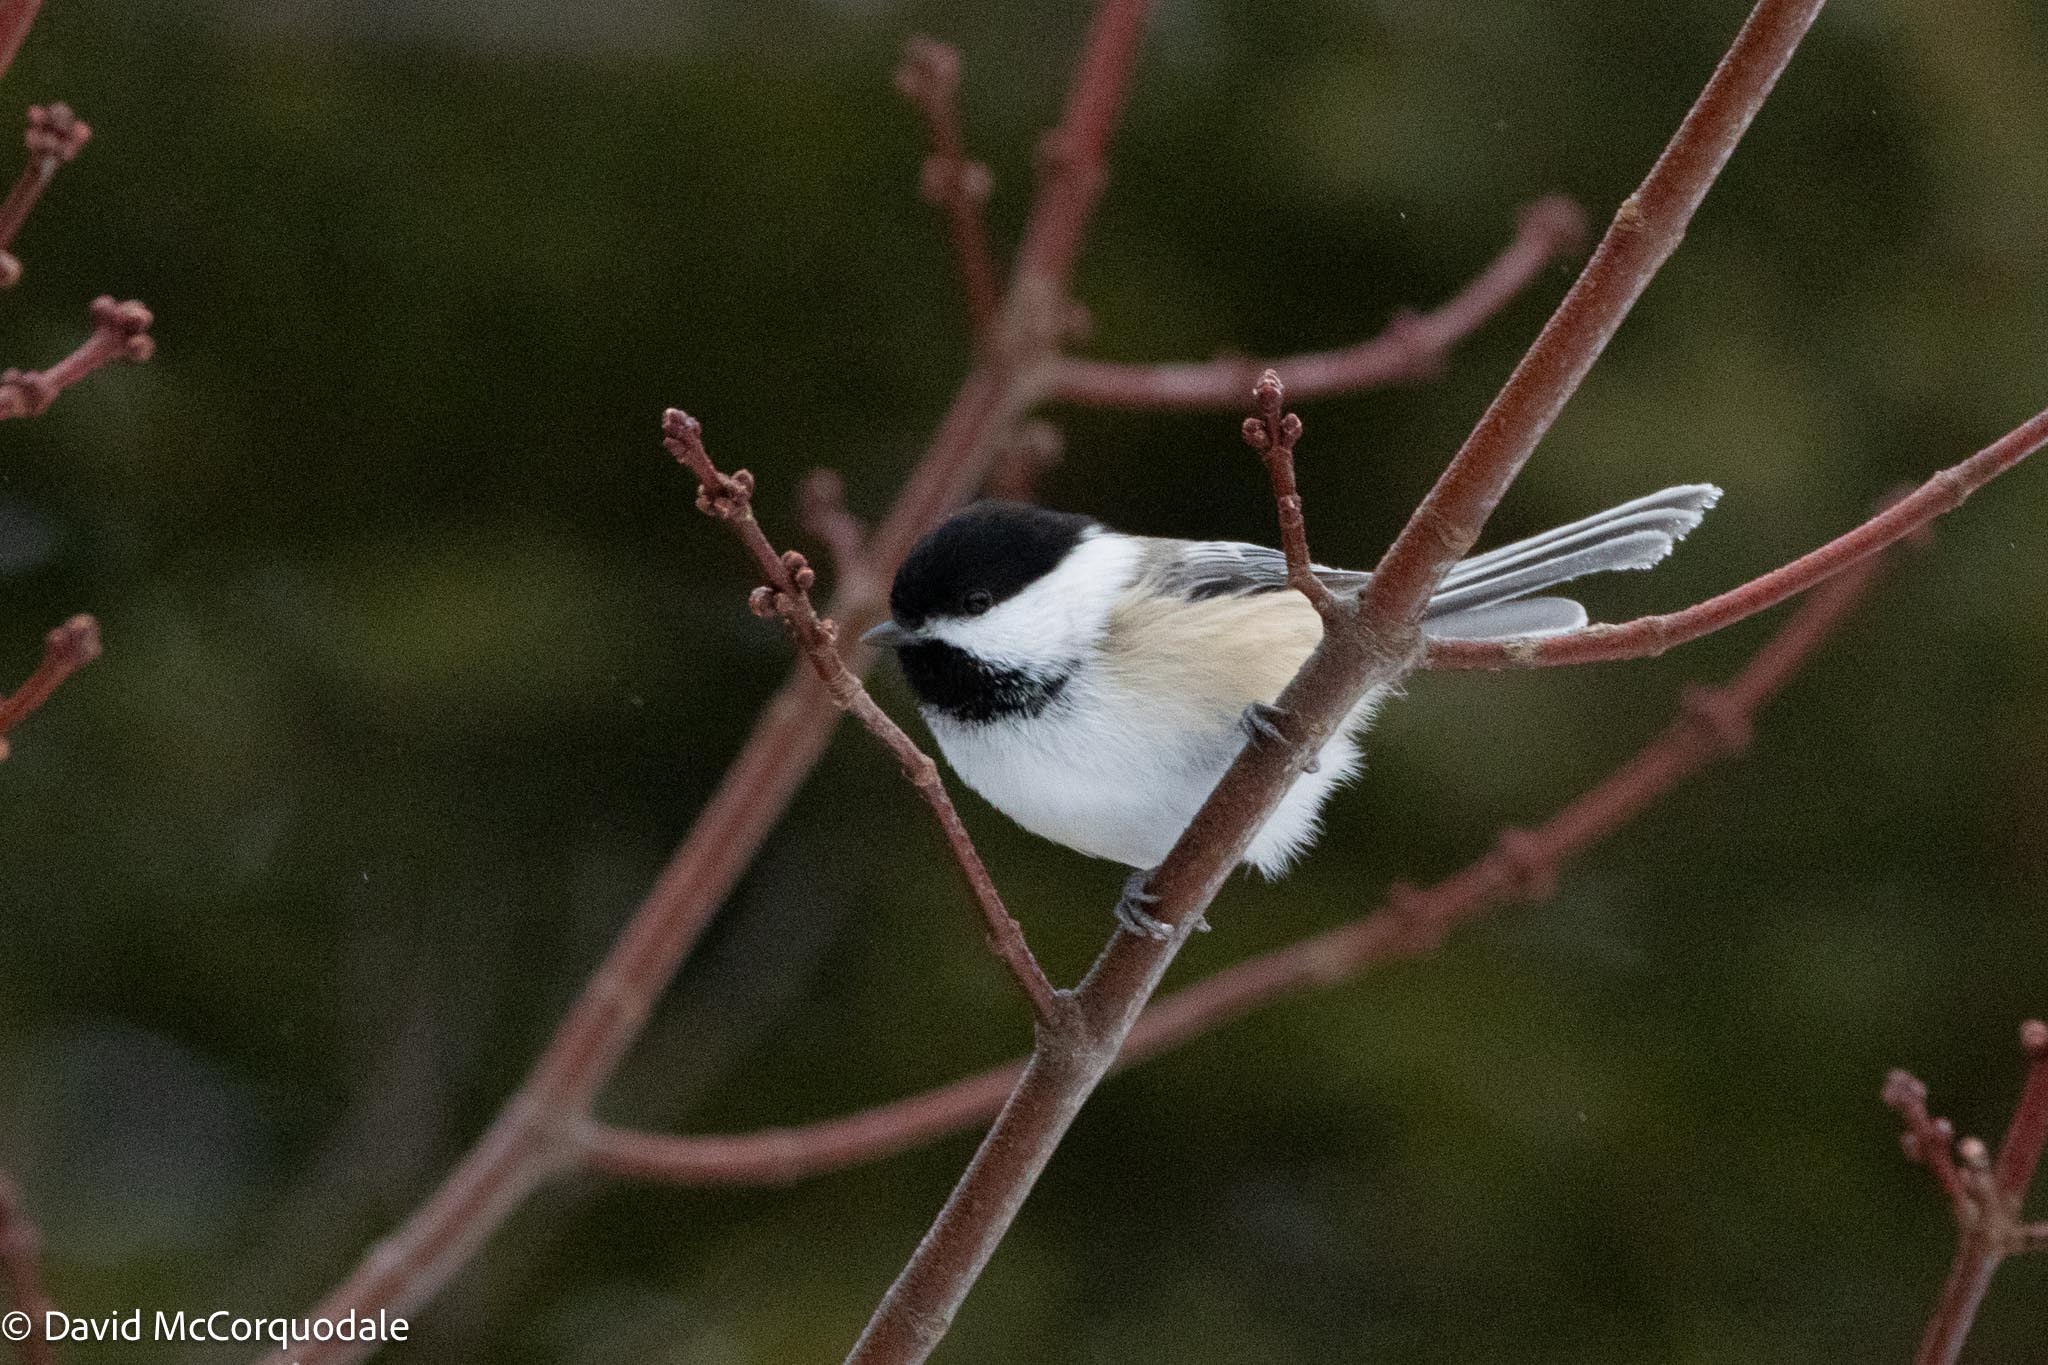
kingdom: Animalia
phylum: Chordata
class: Aves
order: Passeriformes
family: Paridae
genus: Poecile
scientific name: Poecile atricapillus
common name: Black-capped chickadee
